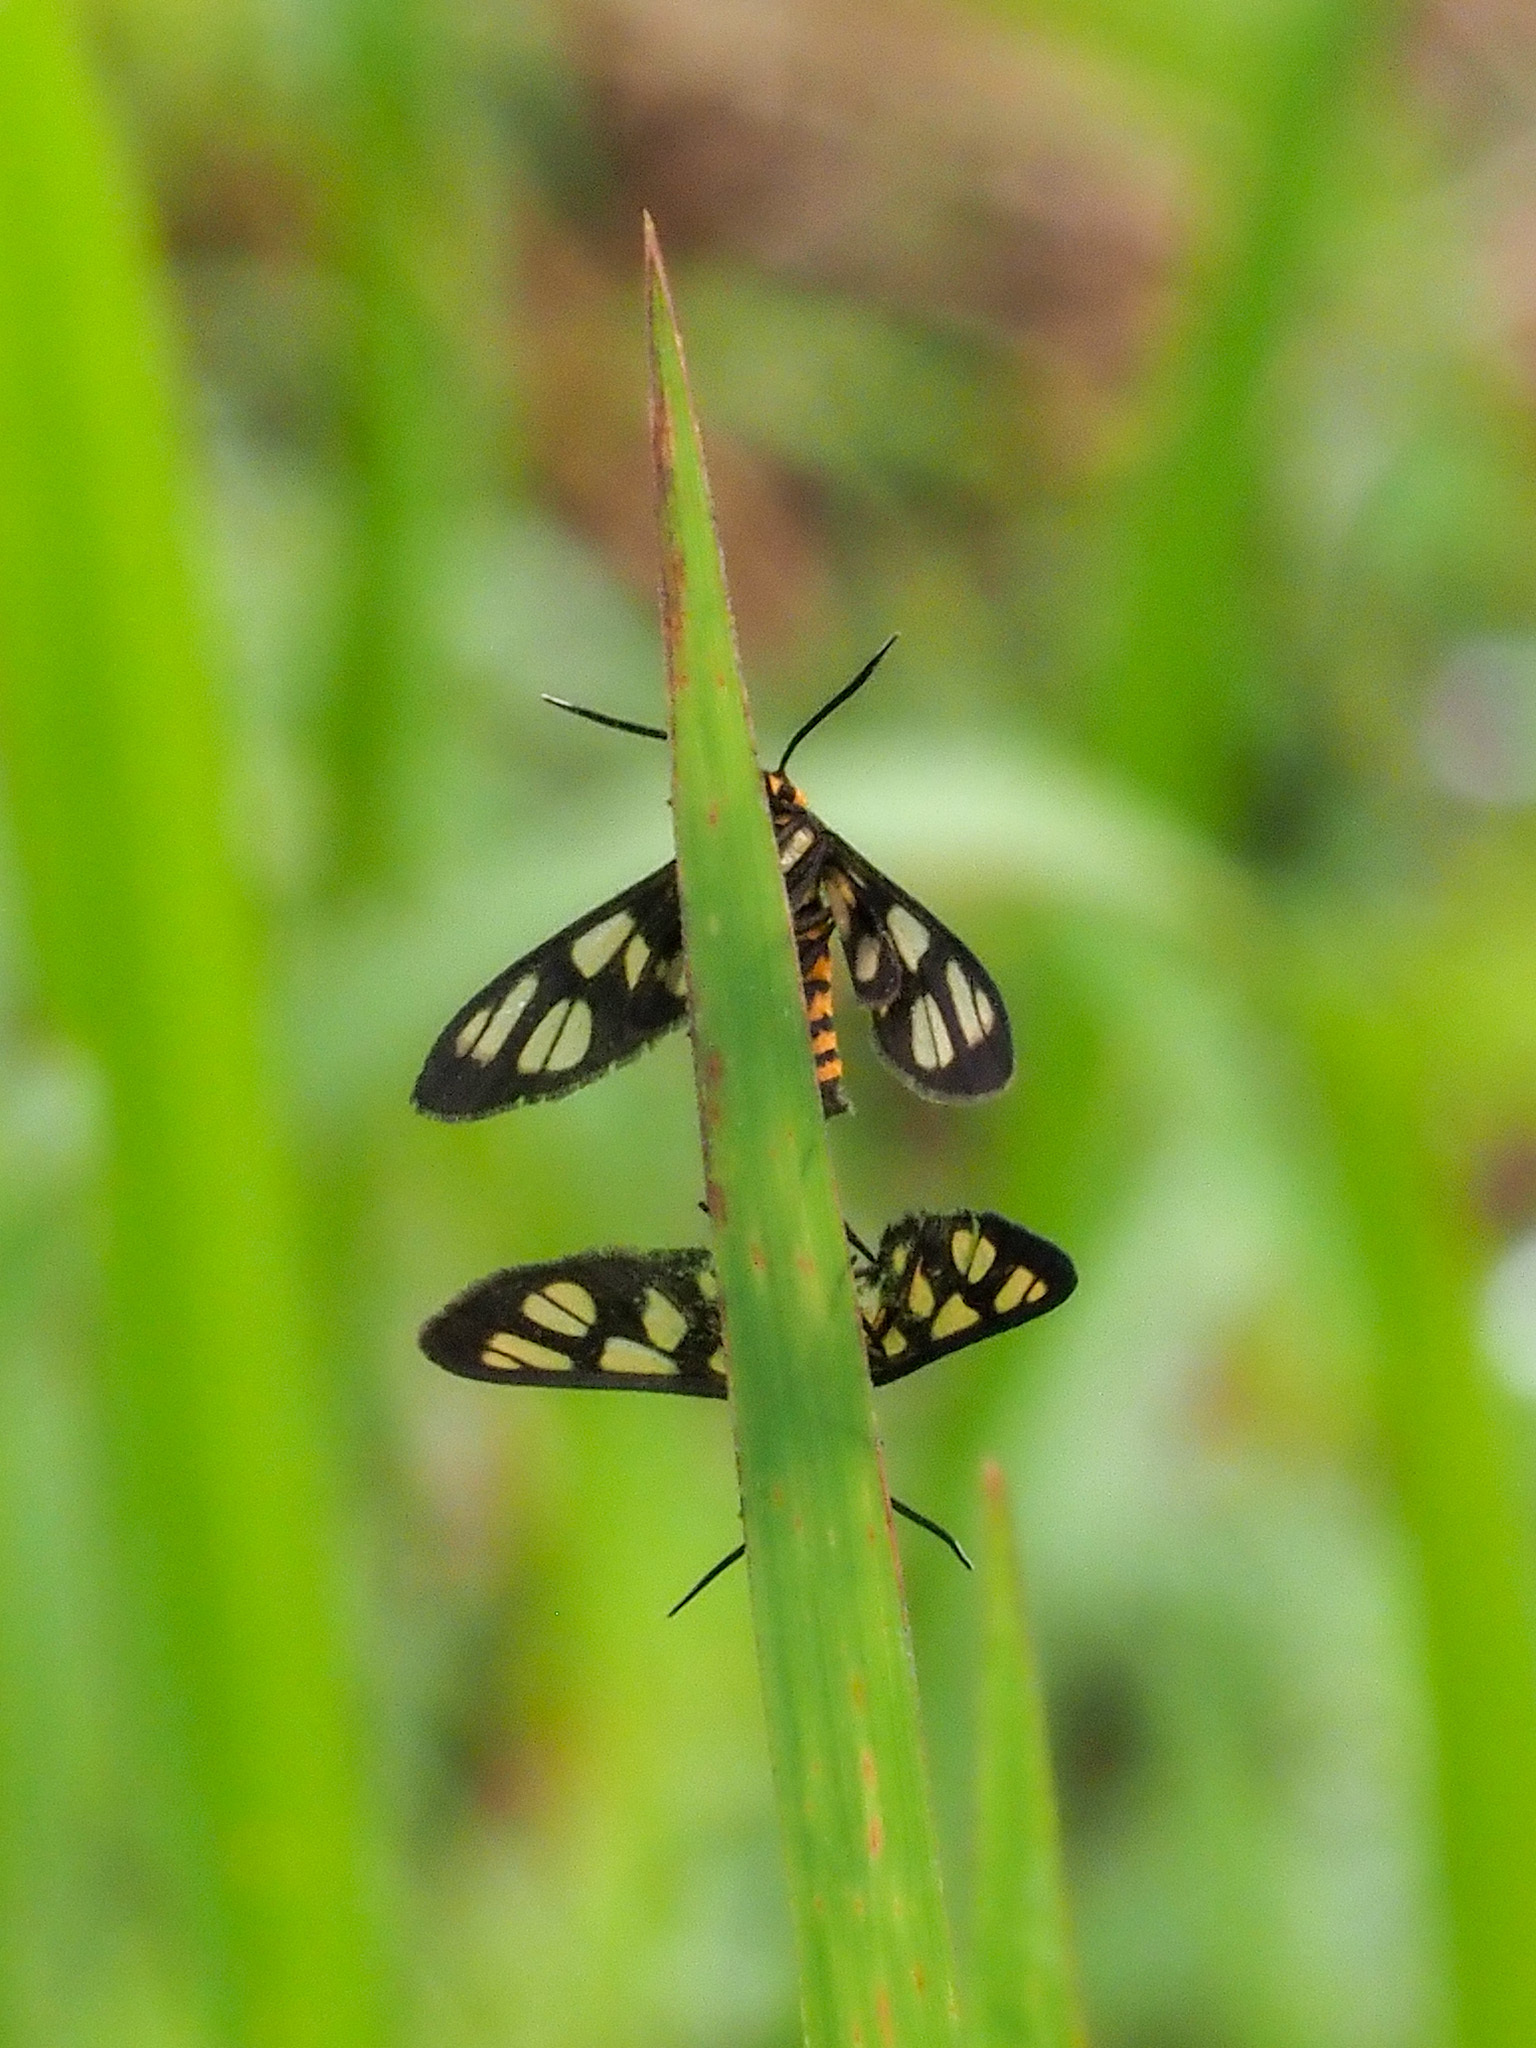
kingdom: Animalia
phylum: Arthropoda
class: Insecta
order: Lepidoptera
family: Erebidae
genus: Amata
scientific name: Amata huebneri
